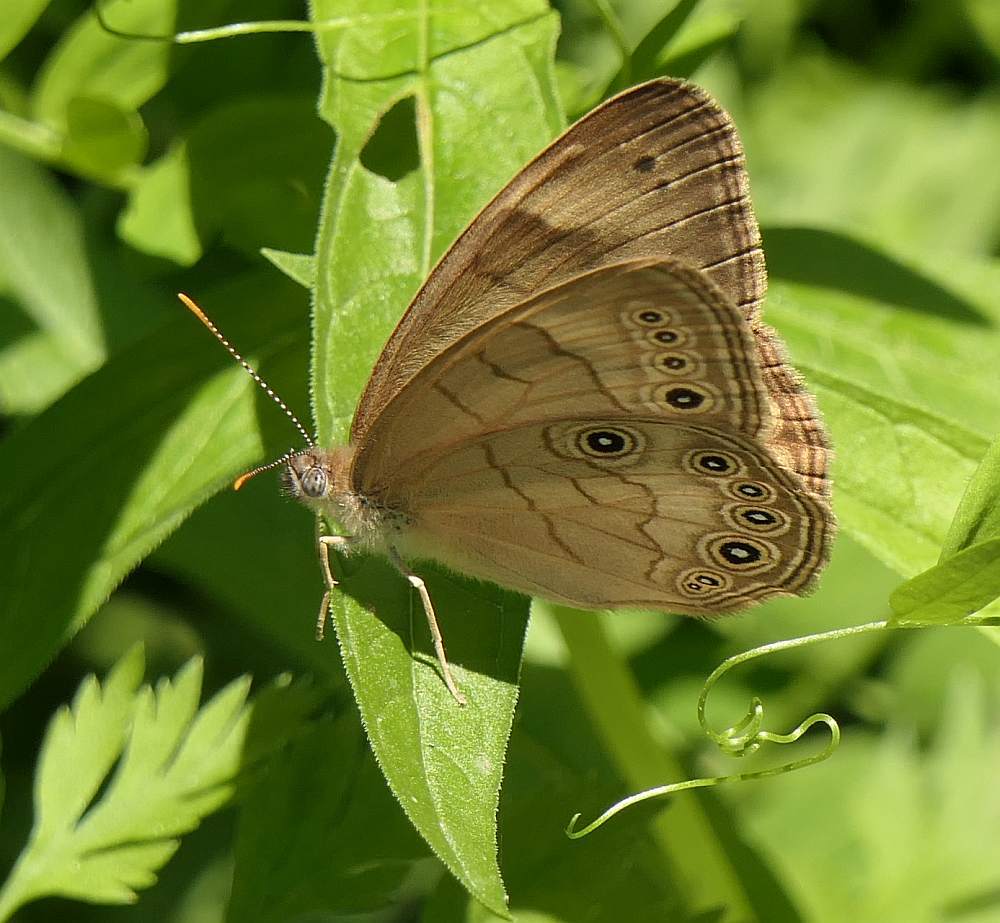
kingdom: Animalia
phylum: Arthropoda
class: Insecta
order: Lepidoptera
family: Nymphalidae
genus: Lethe
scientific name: Lethe eurydice
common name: Eyed brown
